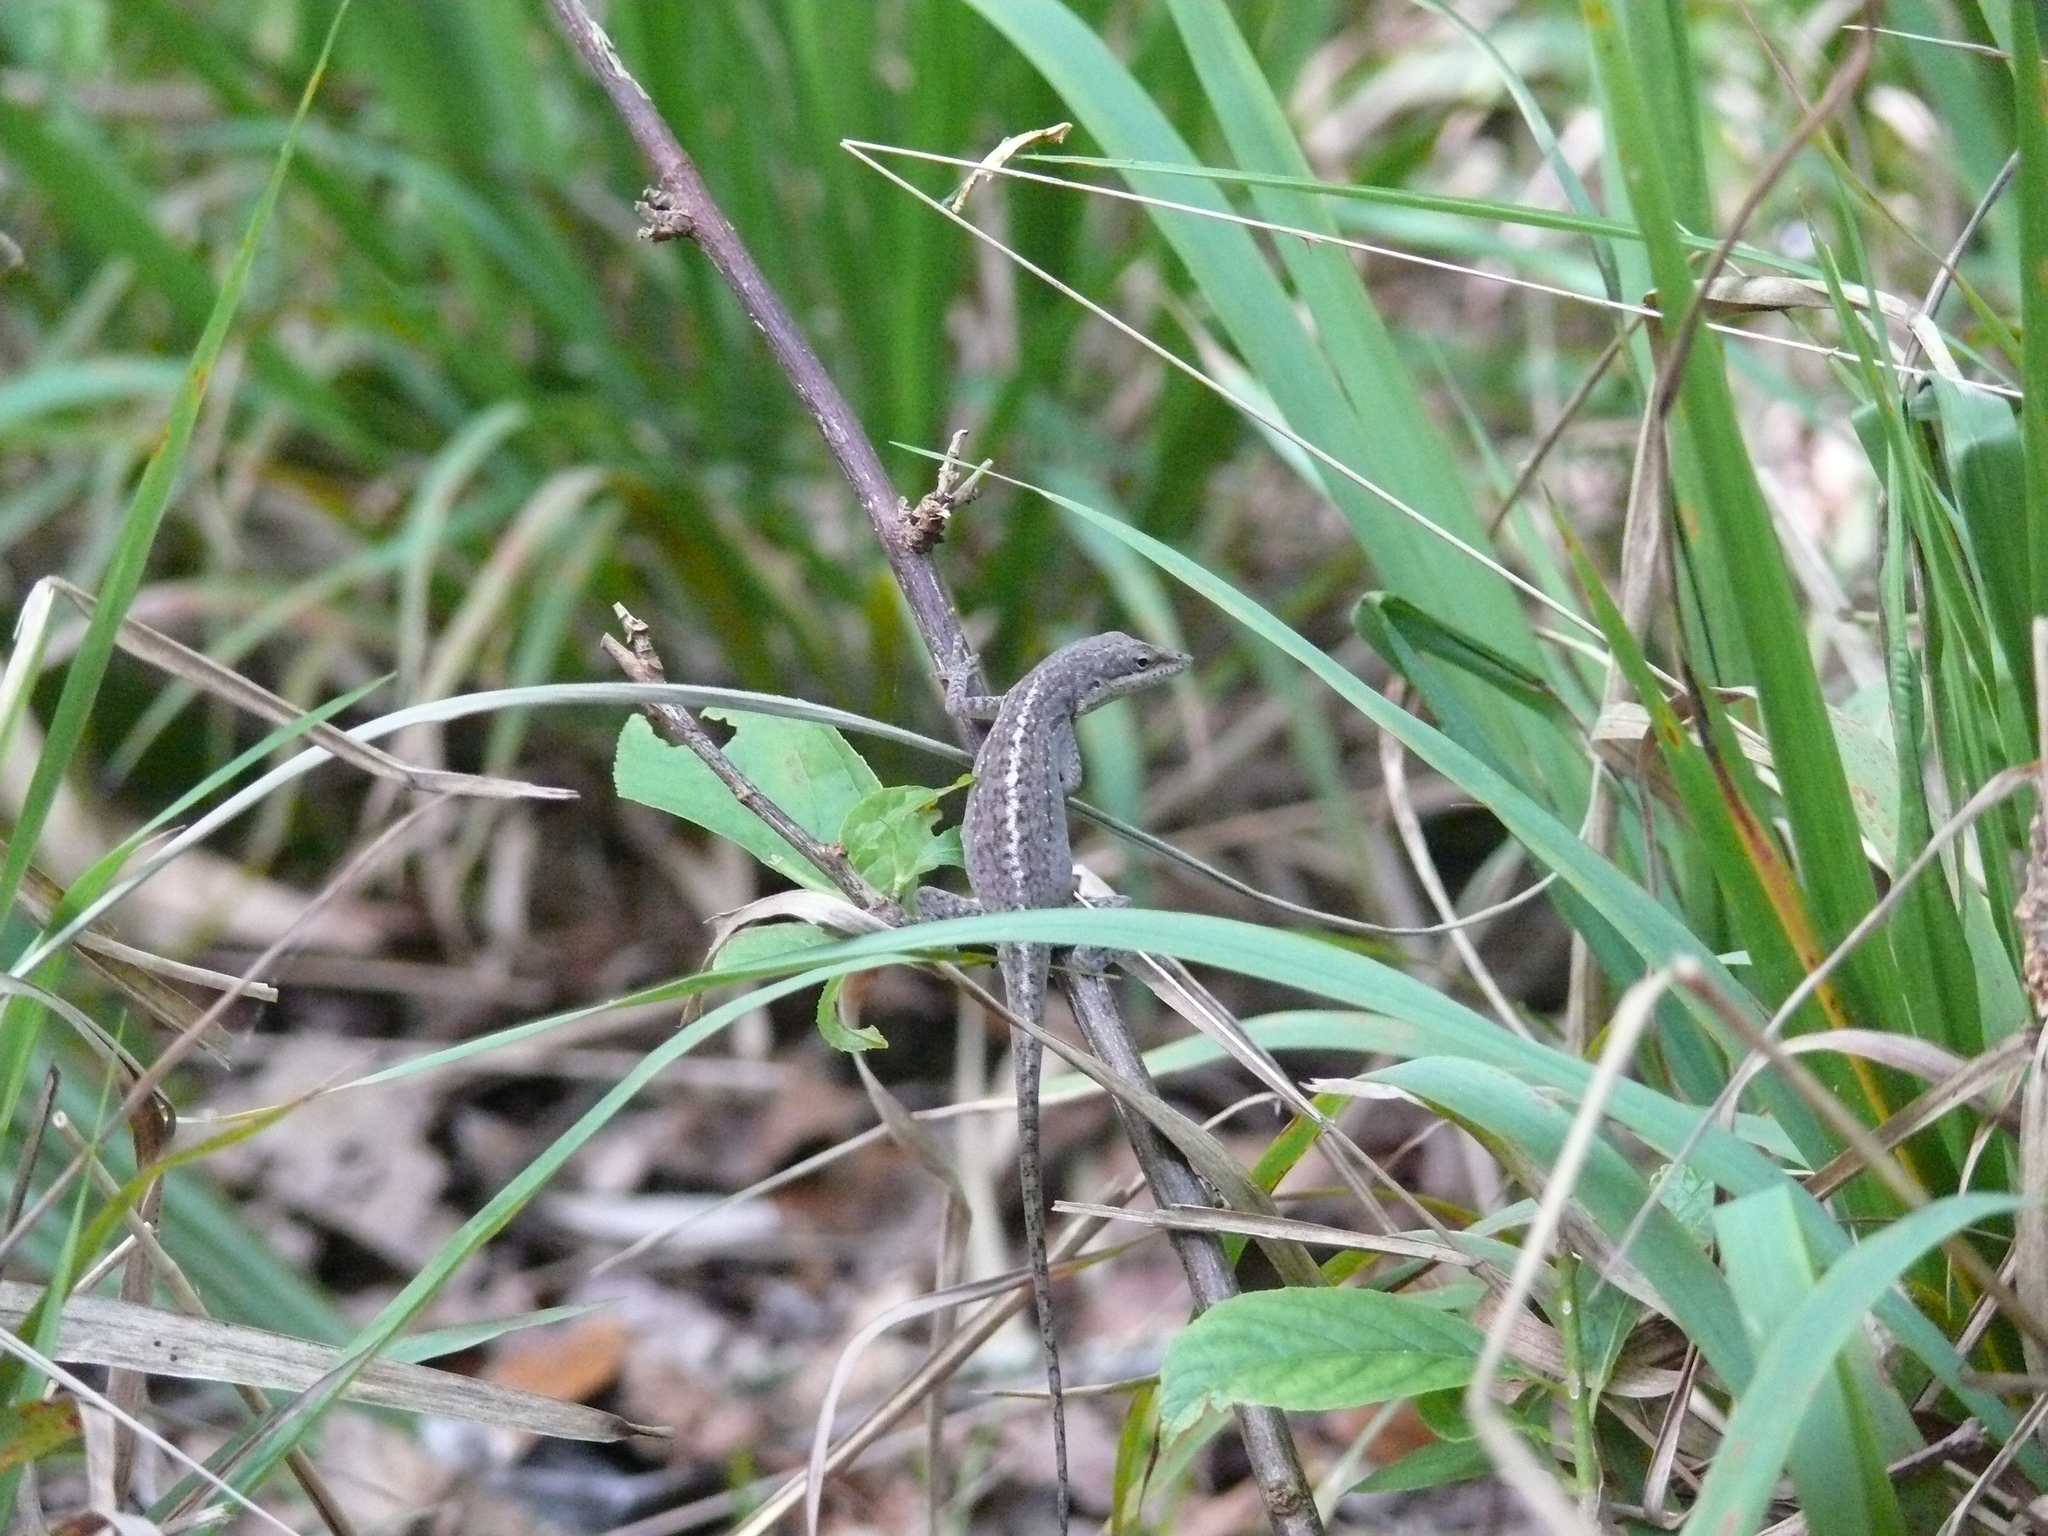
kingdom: Animalia
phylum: Chordata
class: Squamata
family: Dactyloidae
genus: Anolis
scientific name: Anolis carolinensis
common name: Green anole
